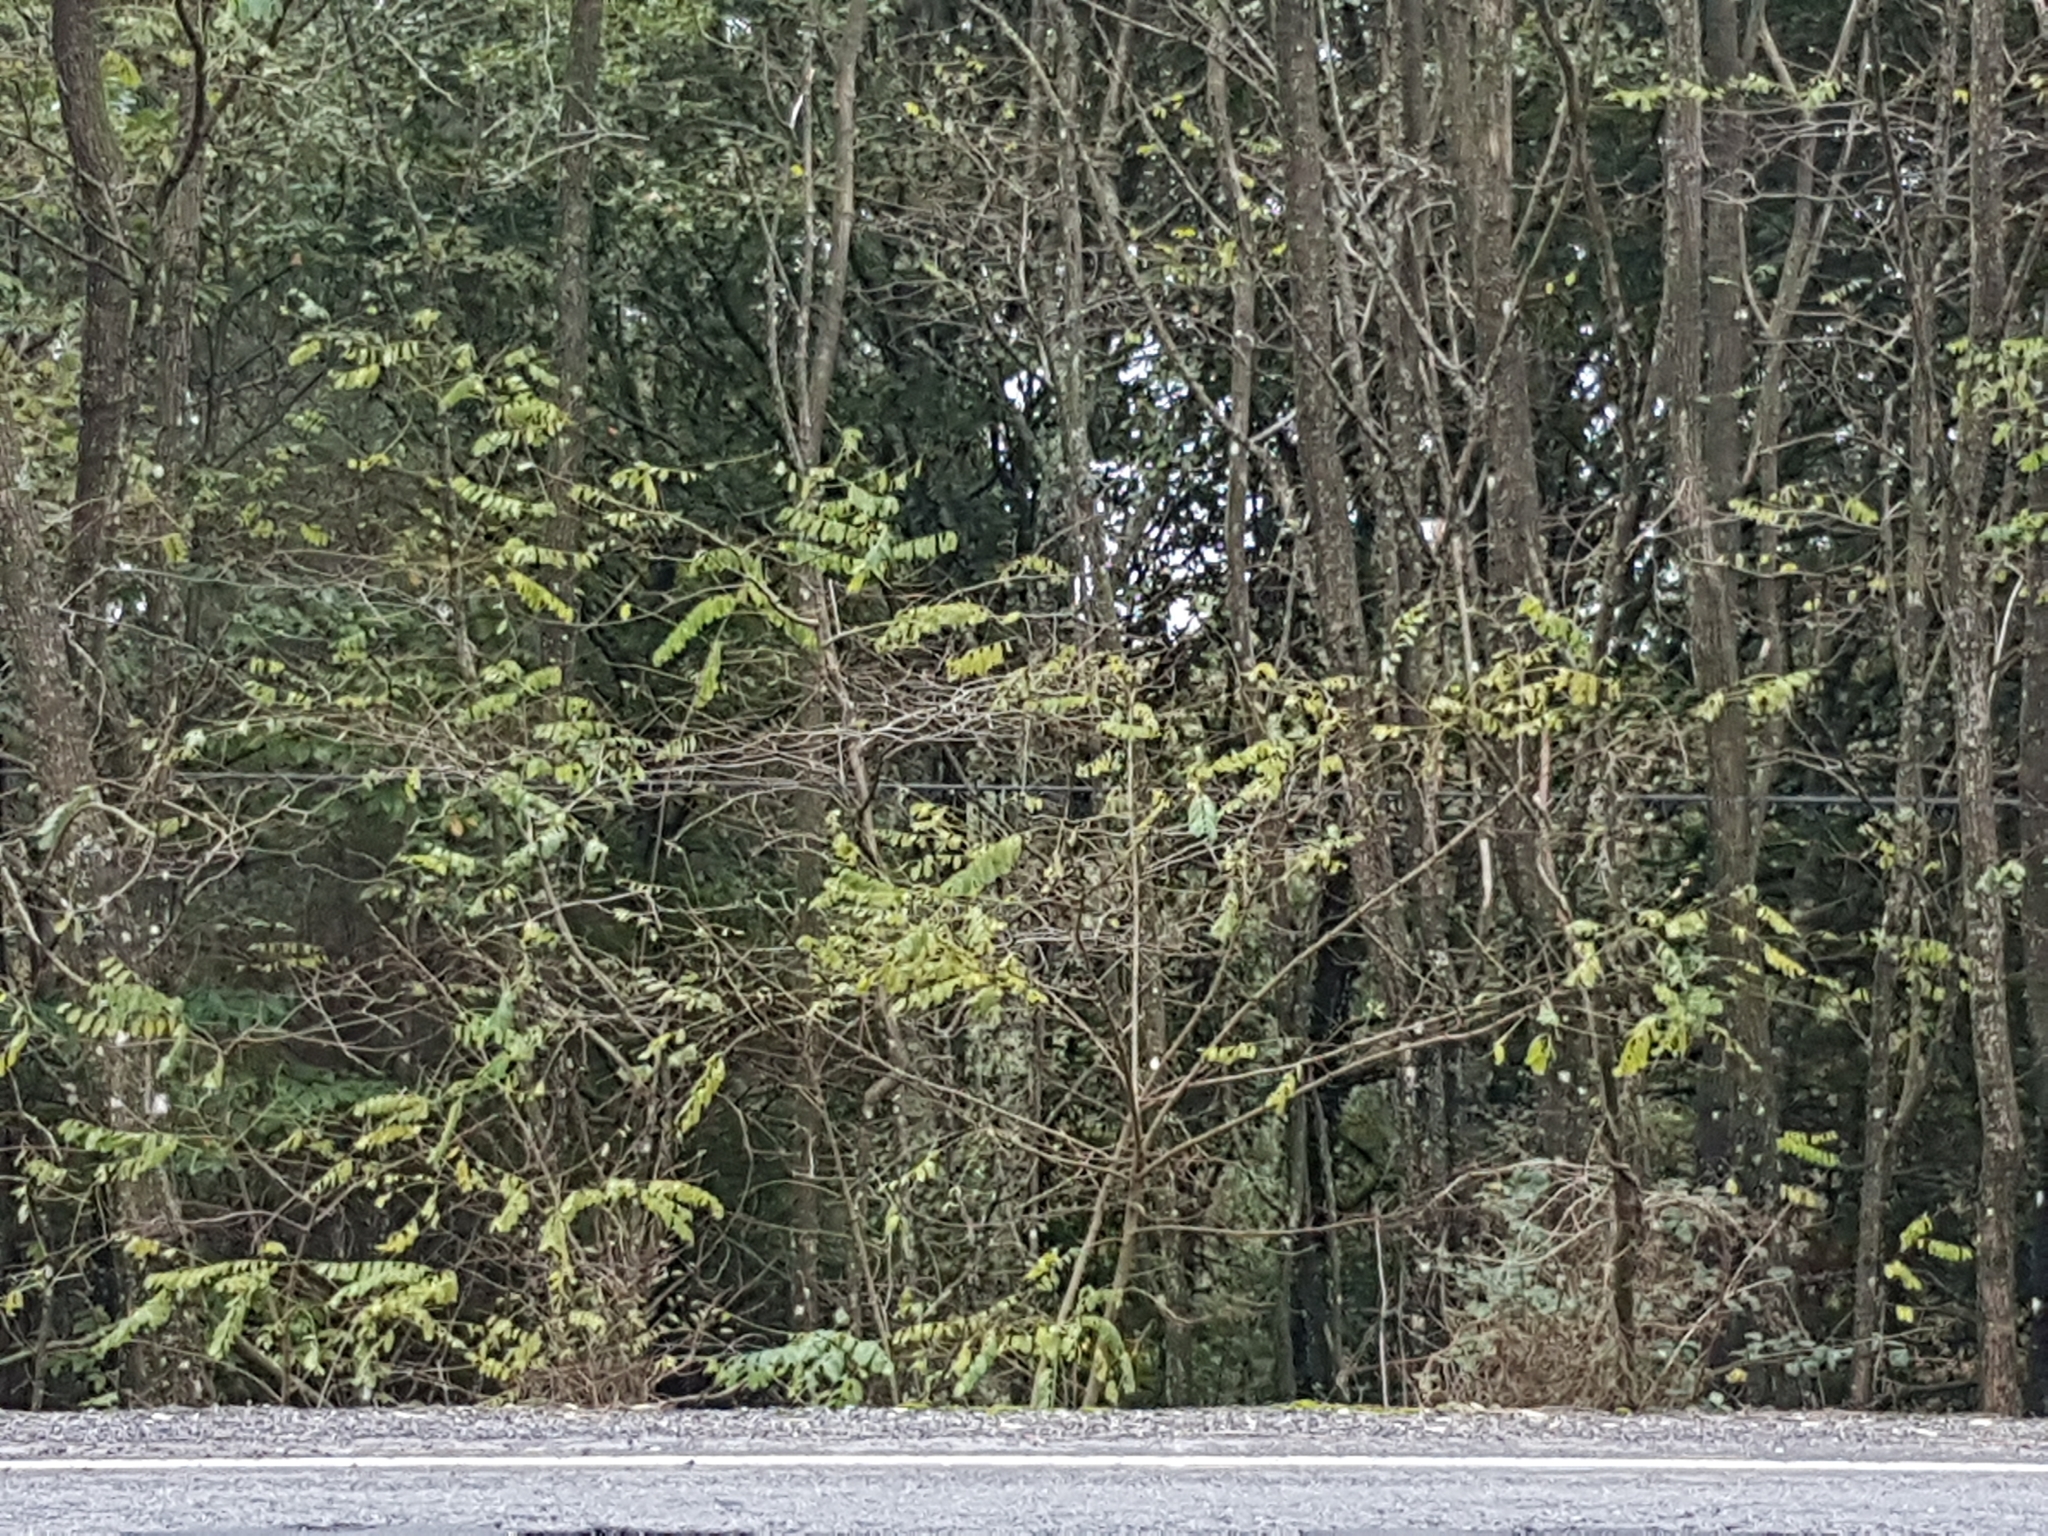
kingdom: Plantae
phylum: Tracheophyta
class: Magnoliopsida
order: Fabales
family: Fabaceae
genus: Robinia
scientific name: Robinia pseudoacacia
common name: Black locust
